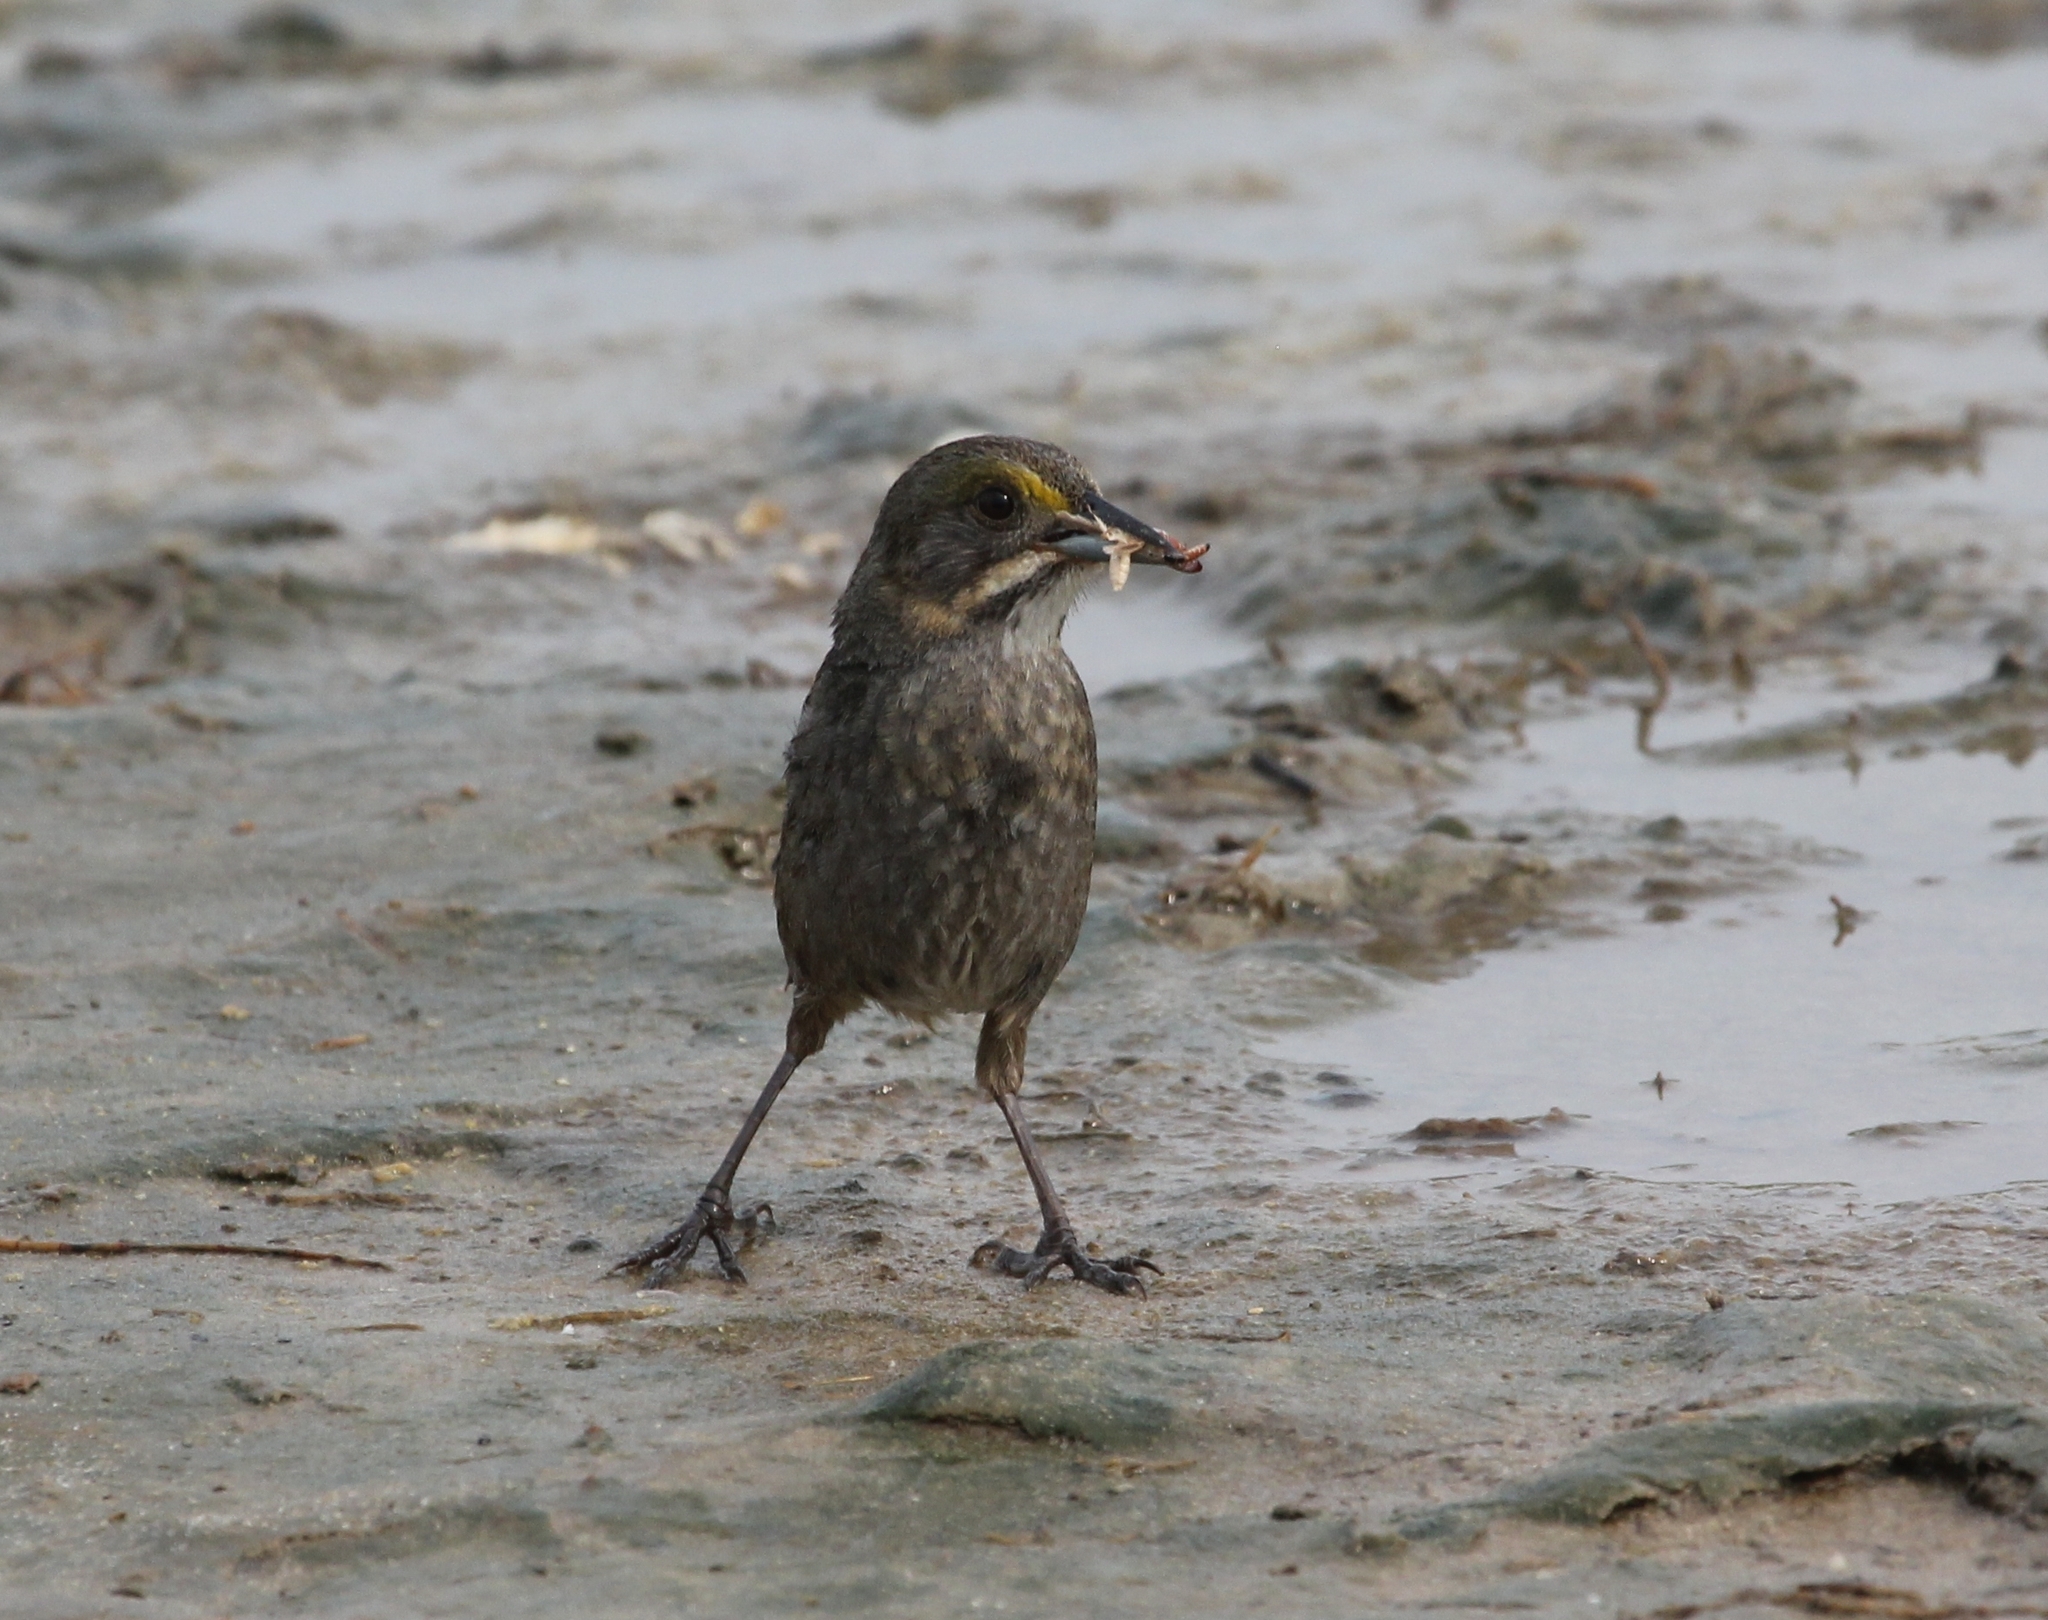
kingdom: Animalia
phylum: Chordata
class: Aves
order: Passeriformes
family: Passerellidae
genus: Ammospiza
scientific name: Ammospiza maritima
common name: Seaside sparrow
